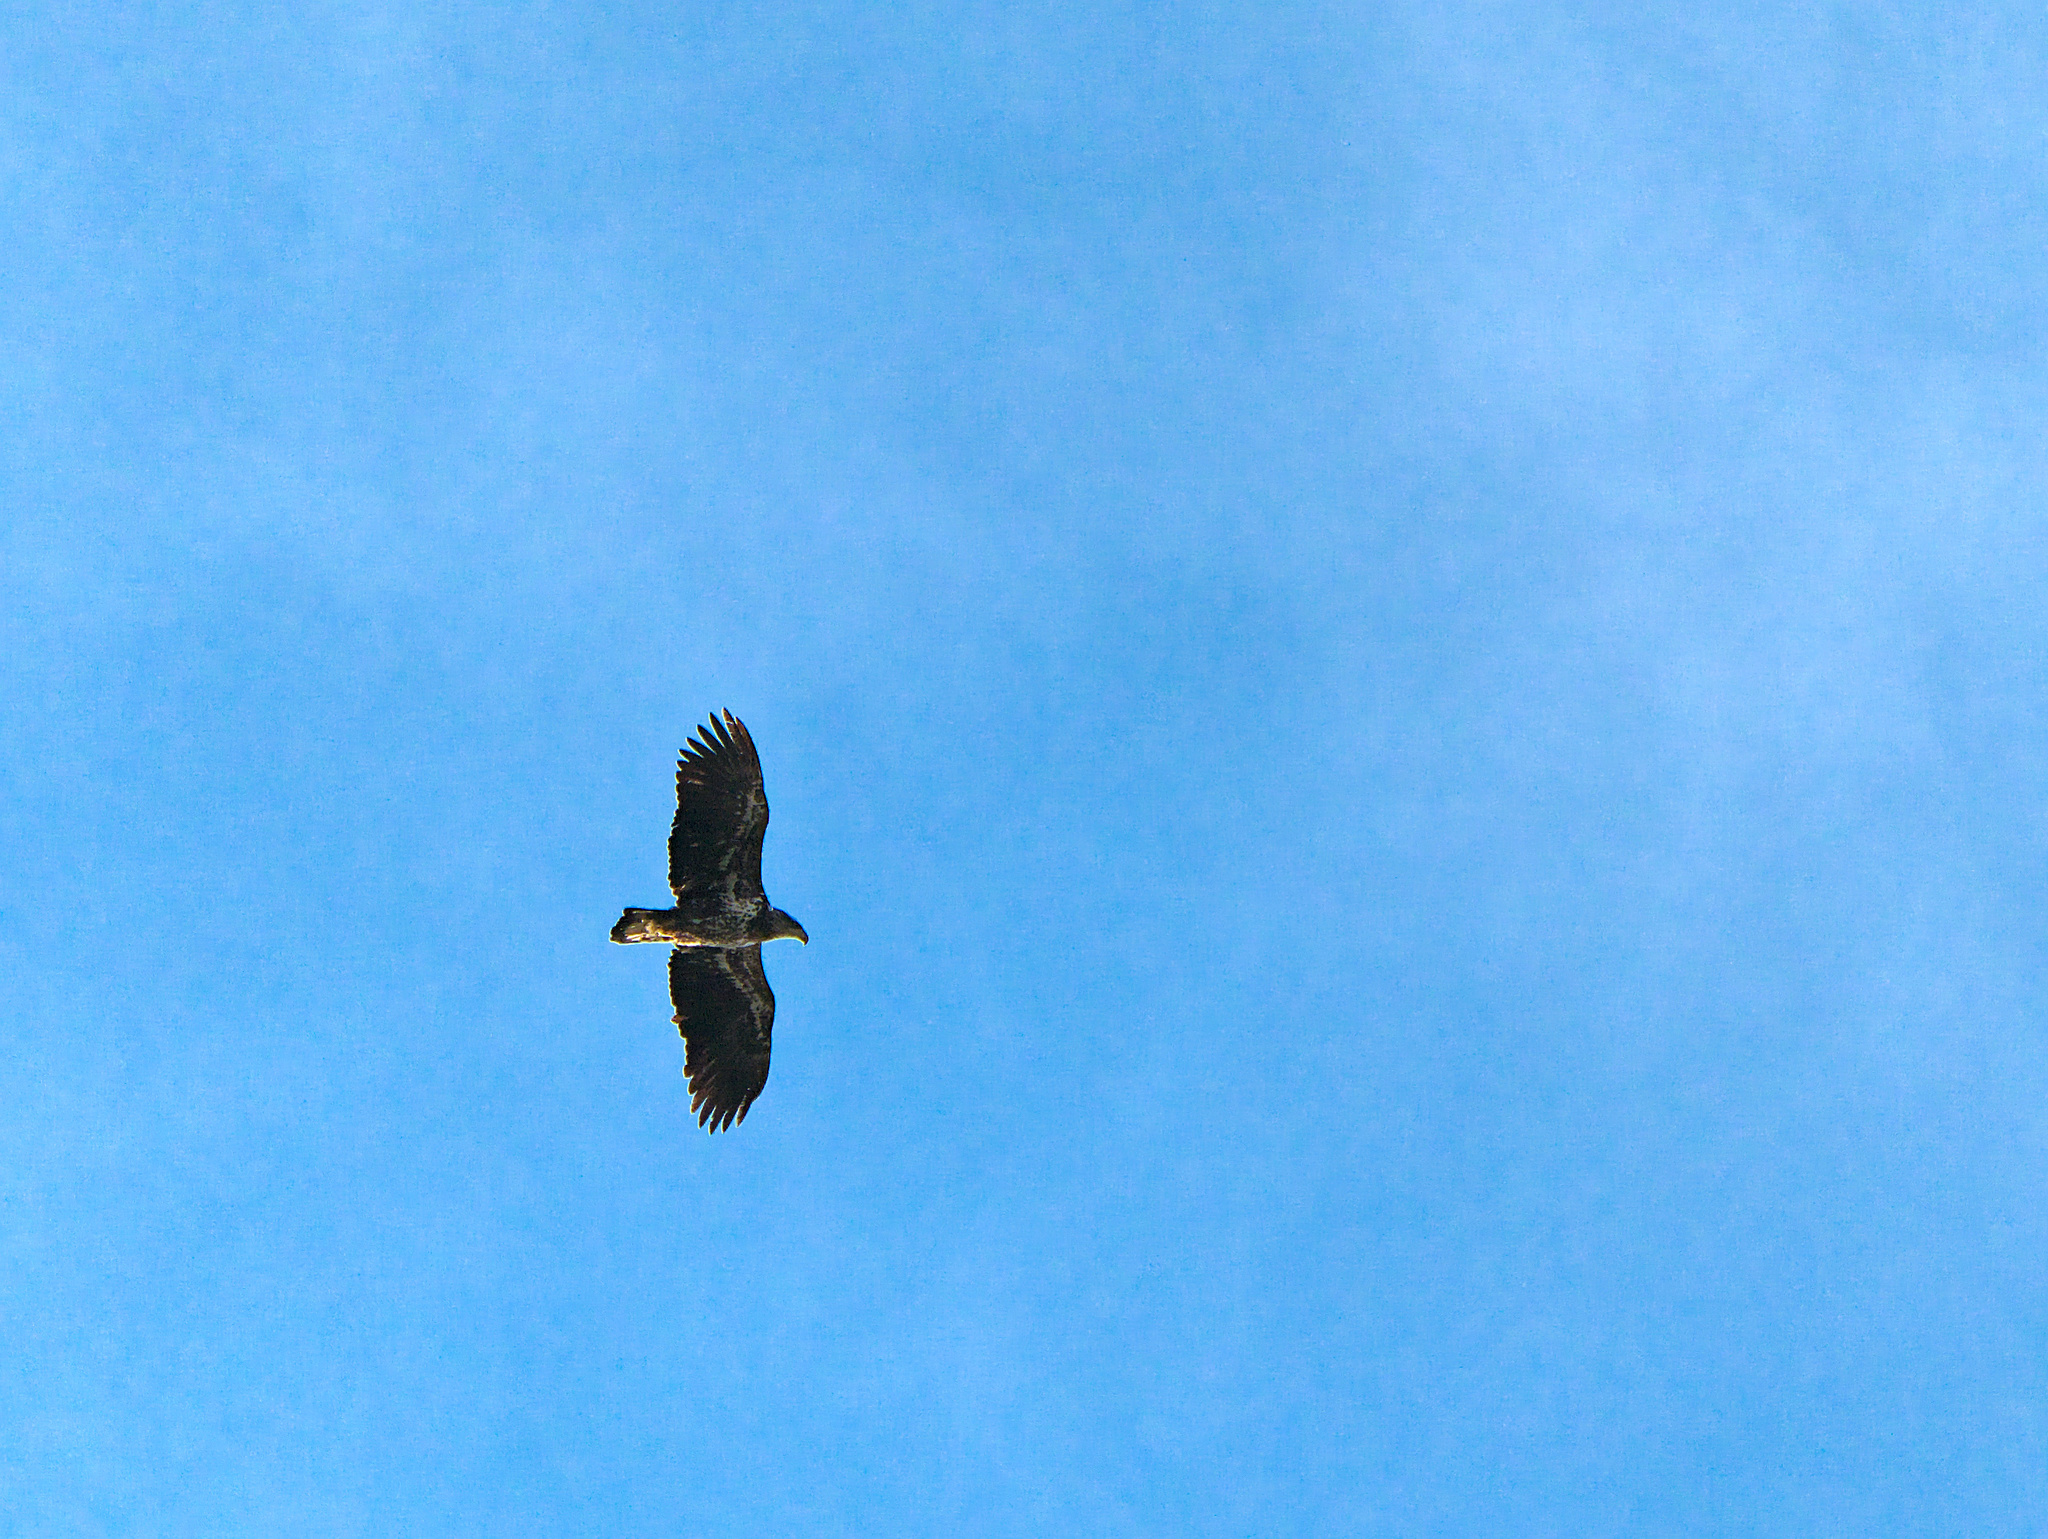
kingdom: Animalia
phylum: Chordata
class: Aves
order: Accipitriformes
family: Accipitridae
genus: Haliaeetus
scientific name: Haliaeetus leucocephalus
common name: Bald eagle
